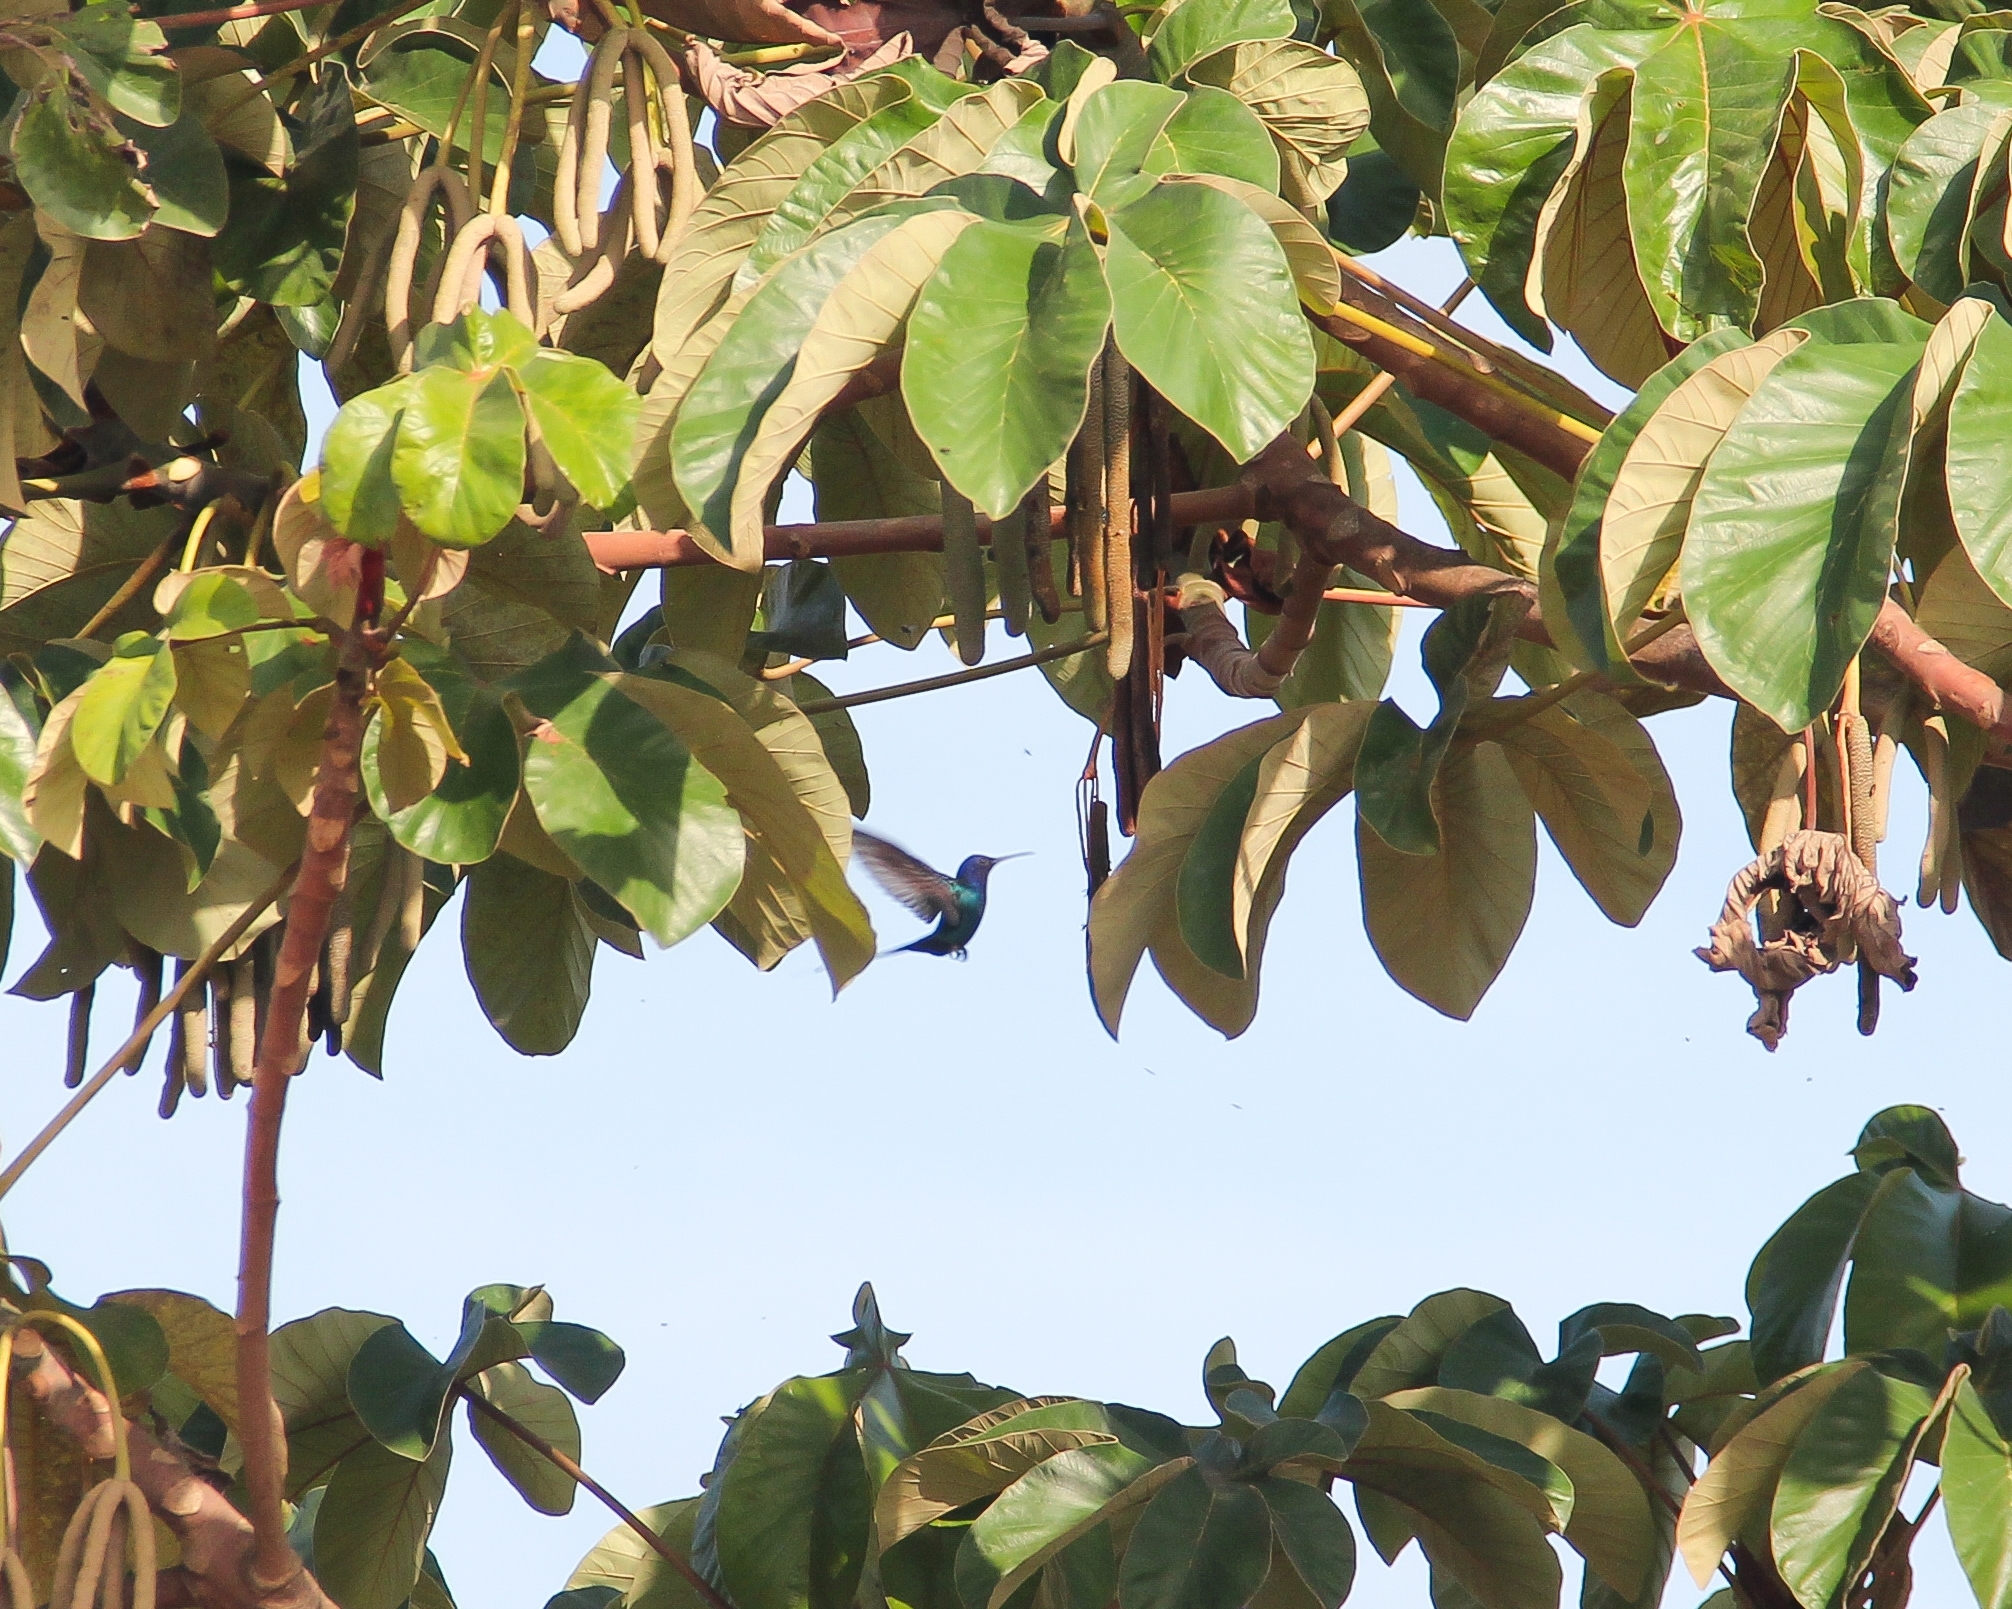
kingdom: Animalia
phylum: Chordata
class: Aves
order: Apodiformes
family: Trochilidae
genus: Eupetomena
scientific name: Eupetomena macroura
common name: Swallow-tailed hummingbird
